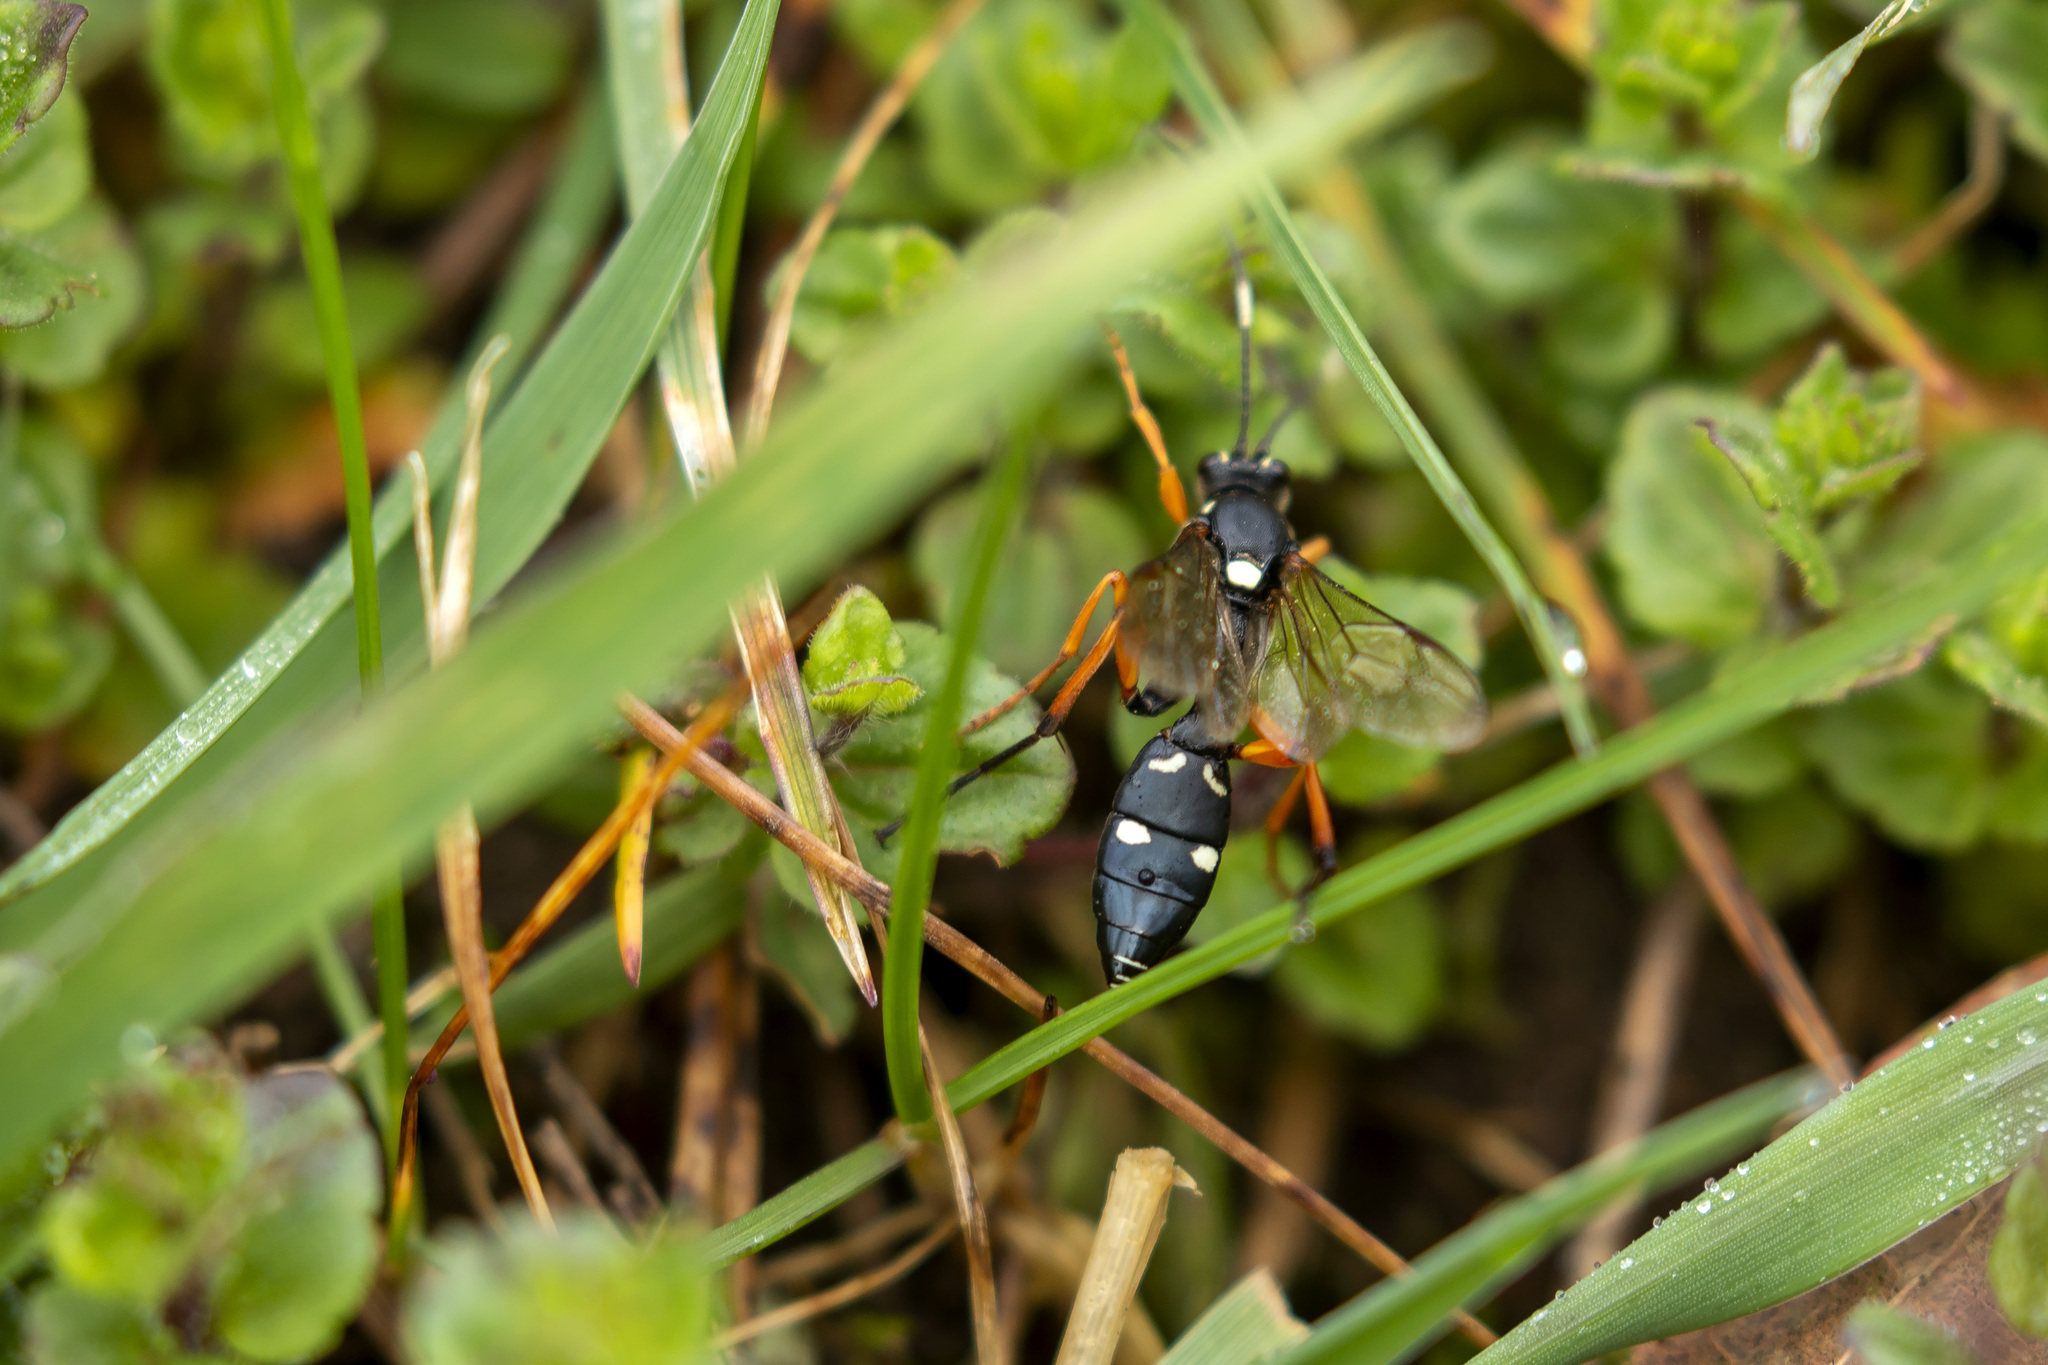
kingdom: Animalia
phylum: Arthropoda
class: Insecta
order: Hymenoptera
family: Ichneumonidae
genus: Diphyus
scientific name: Diphyus quadripunctorius
